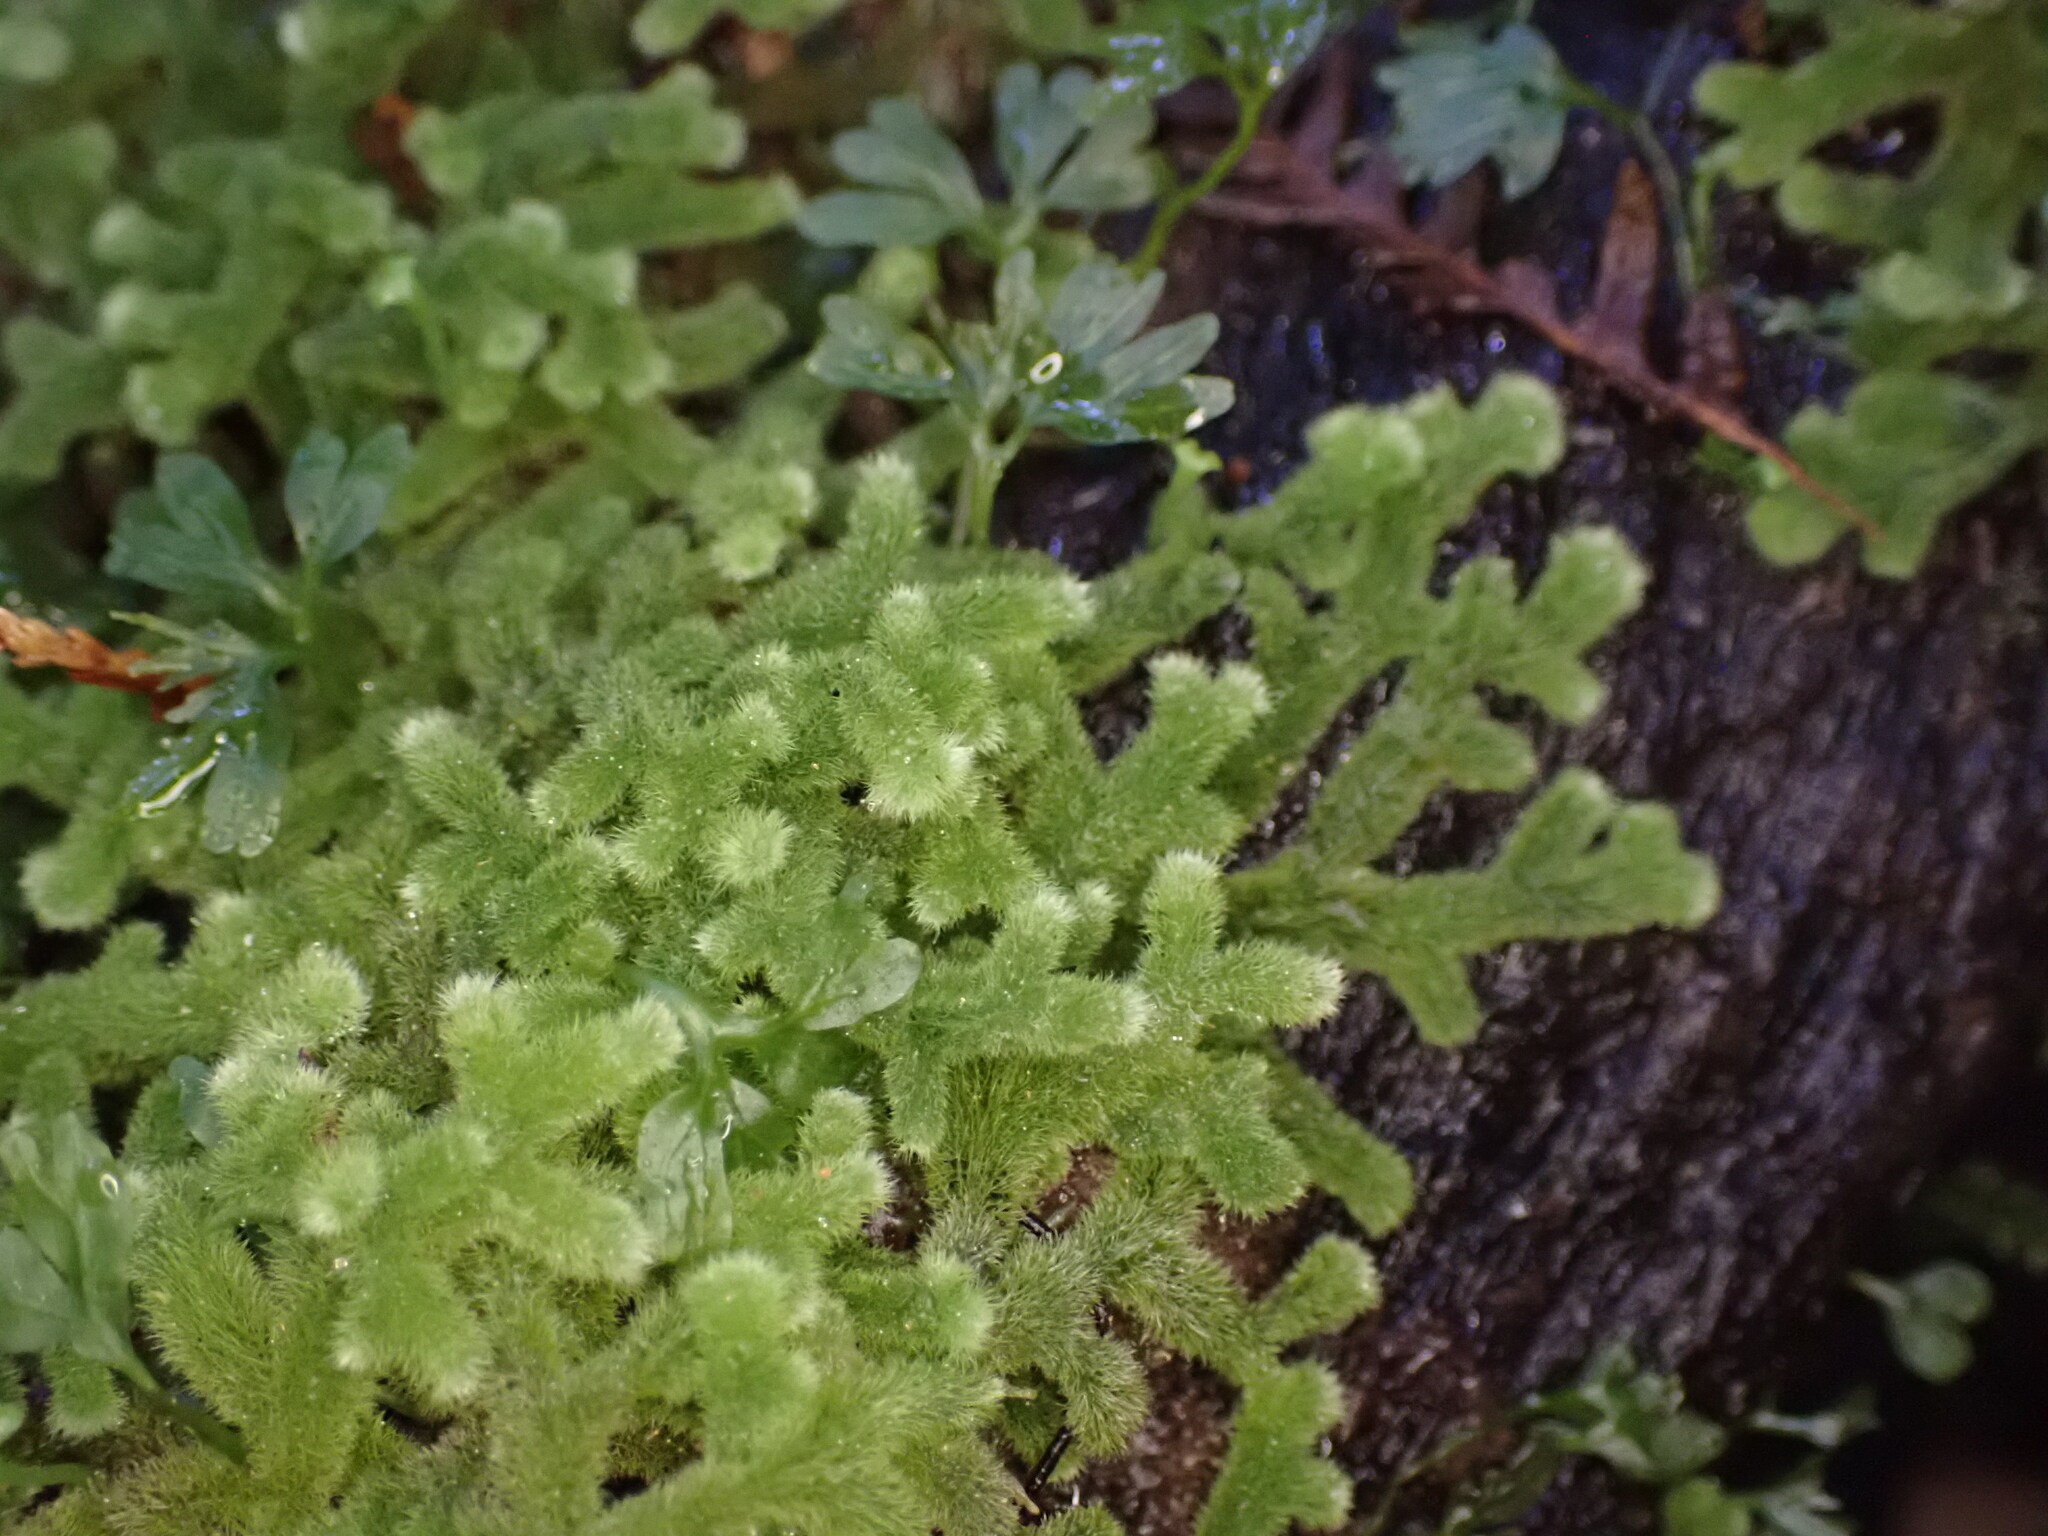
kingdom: Plantae
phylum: Marchantiophyta
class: Jungermanniopsida
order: Jungermanniales
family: Trichocoleaceae
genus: Leiomitra
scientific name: Leiomitra lanata
